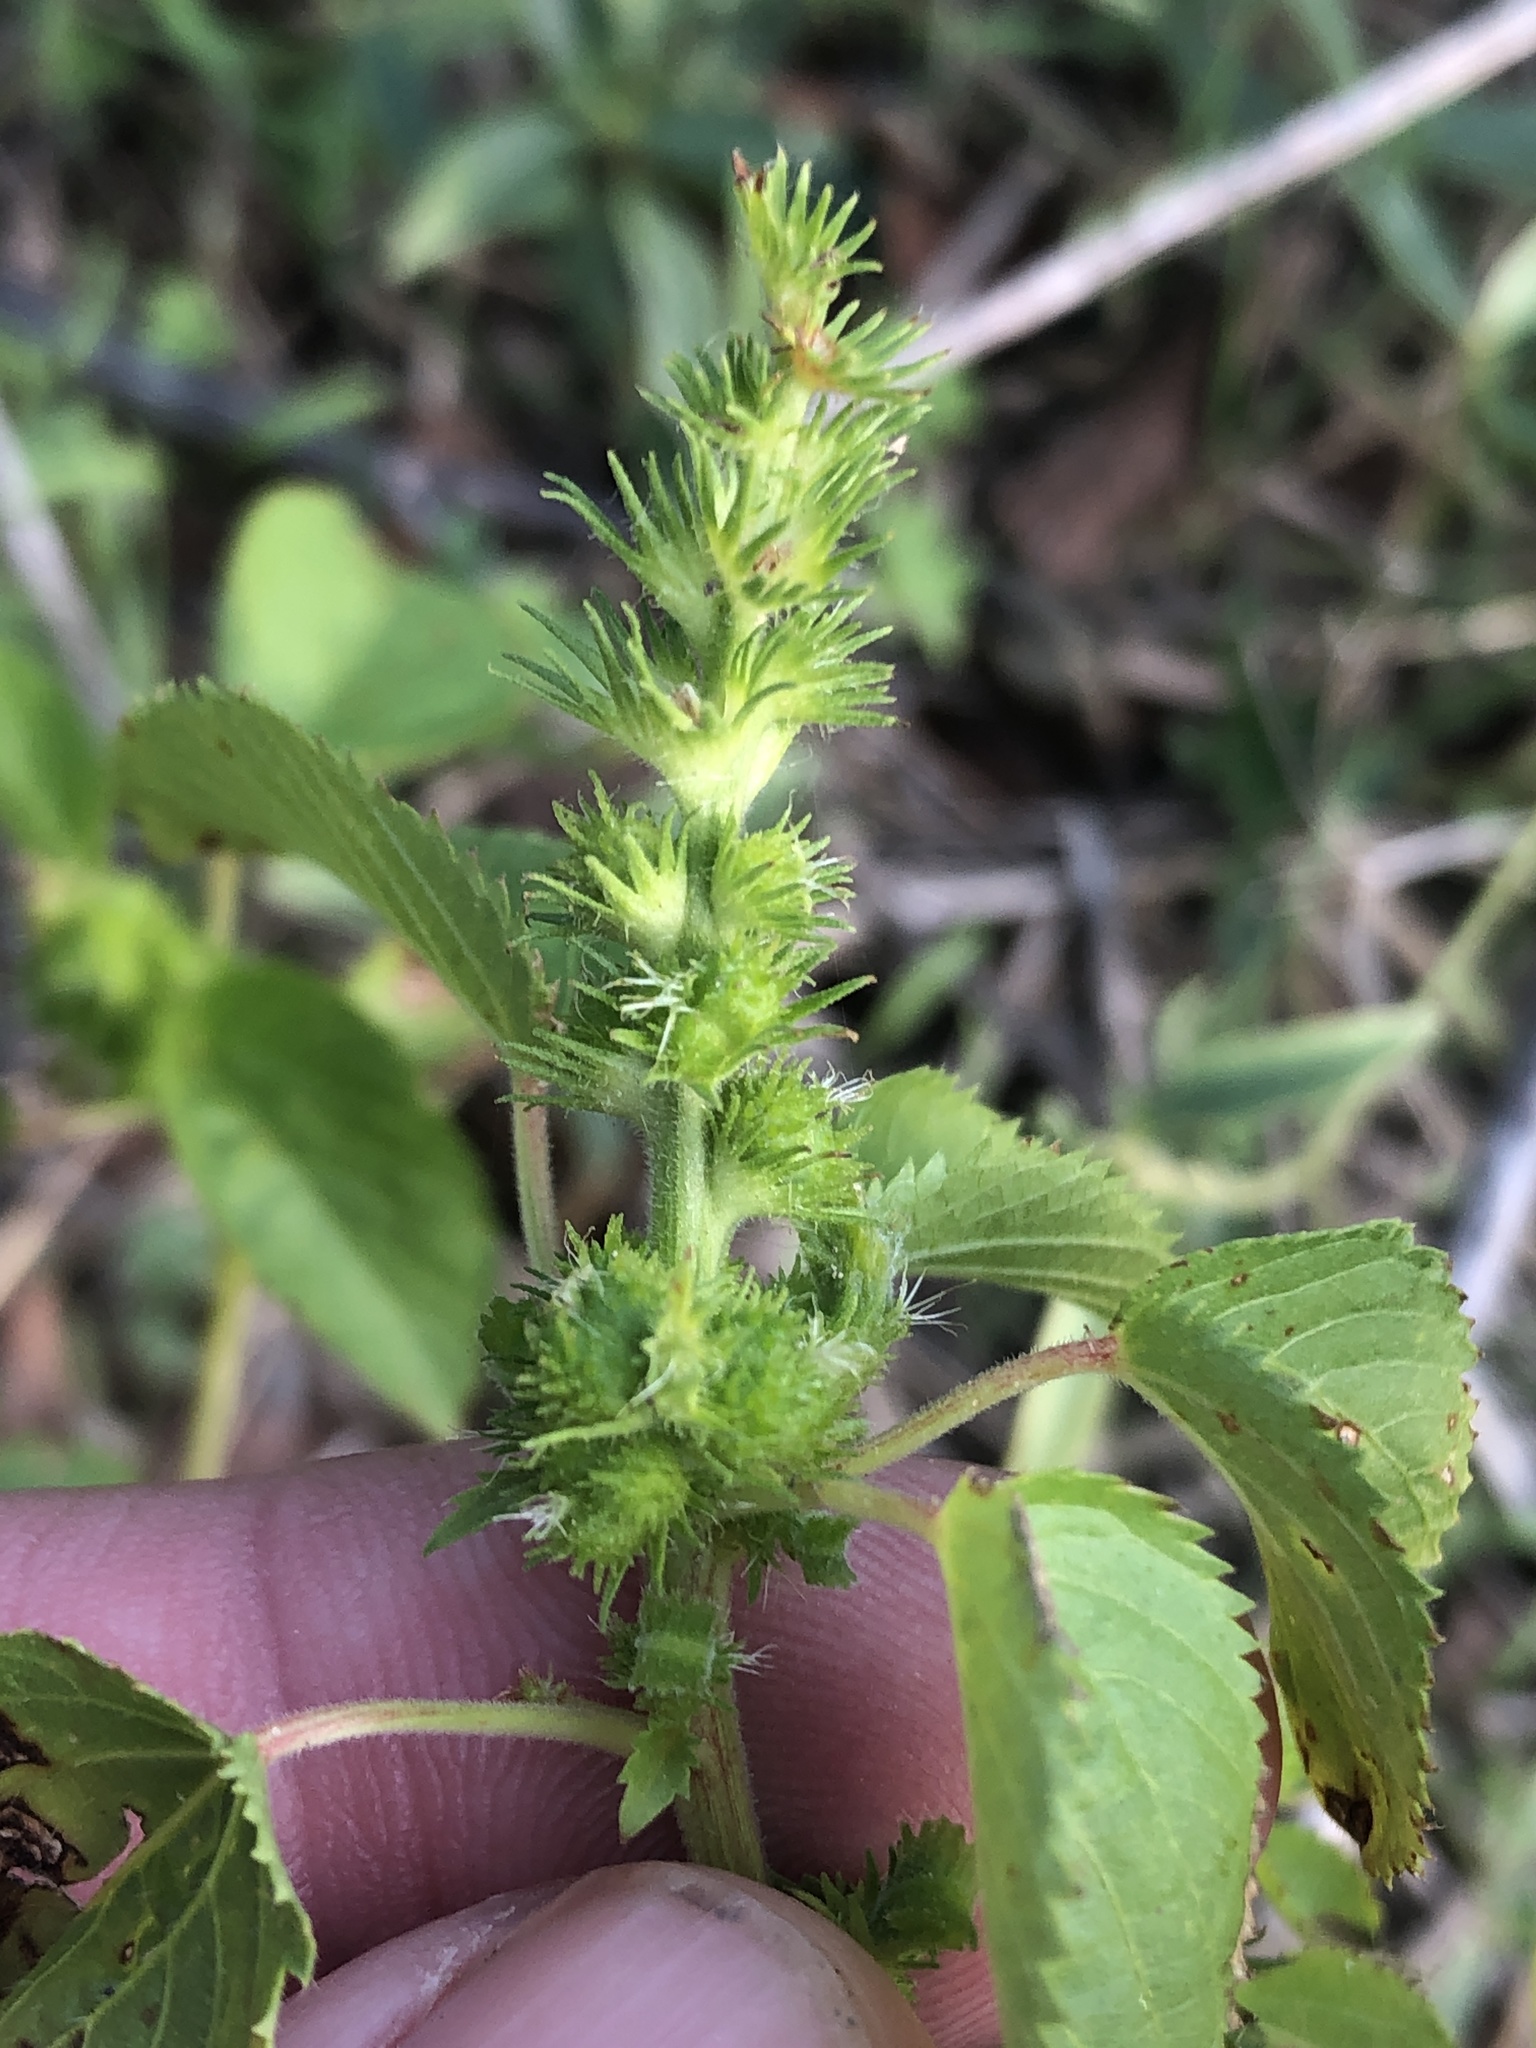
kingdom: Plantae
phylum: Tracheophyta
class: Magnoliopsida
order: Malpighiales
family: Euphorbiaceae
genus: Acalypha
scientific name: Acalypha ostryifolia
